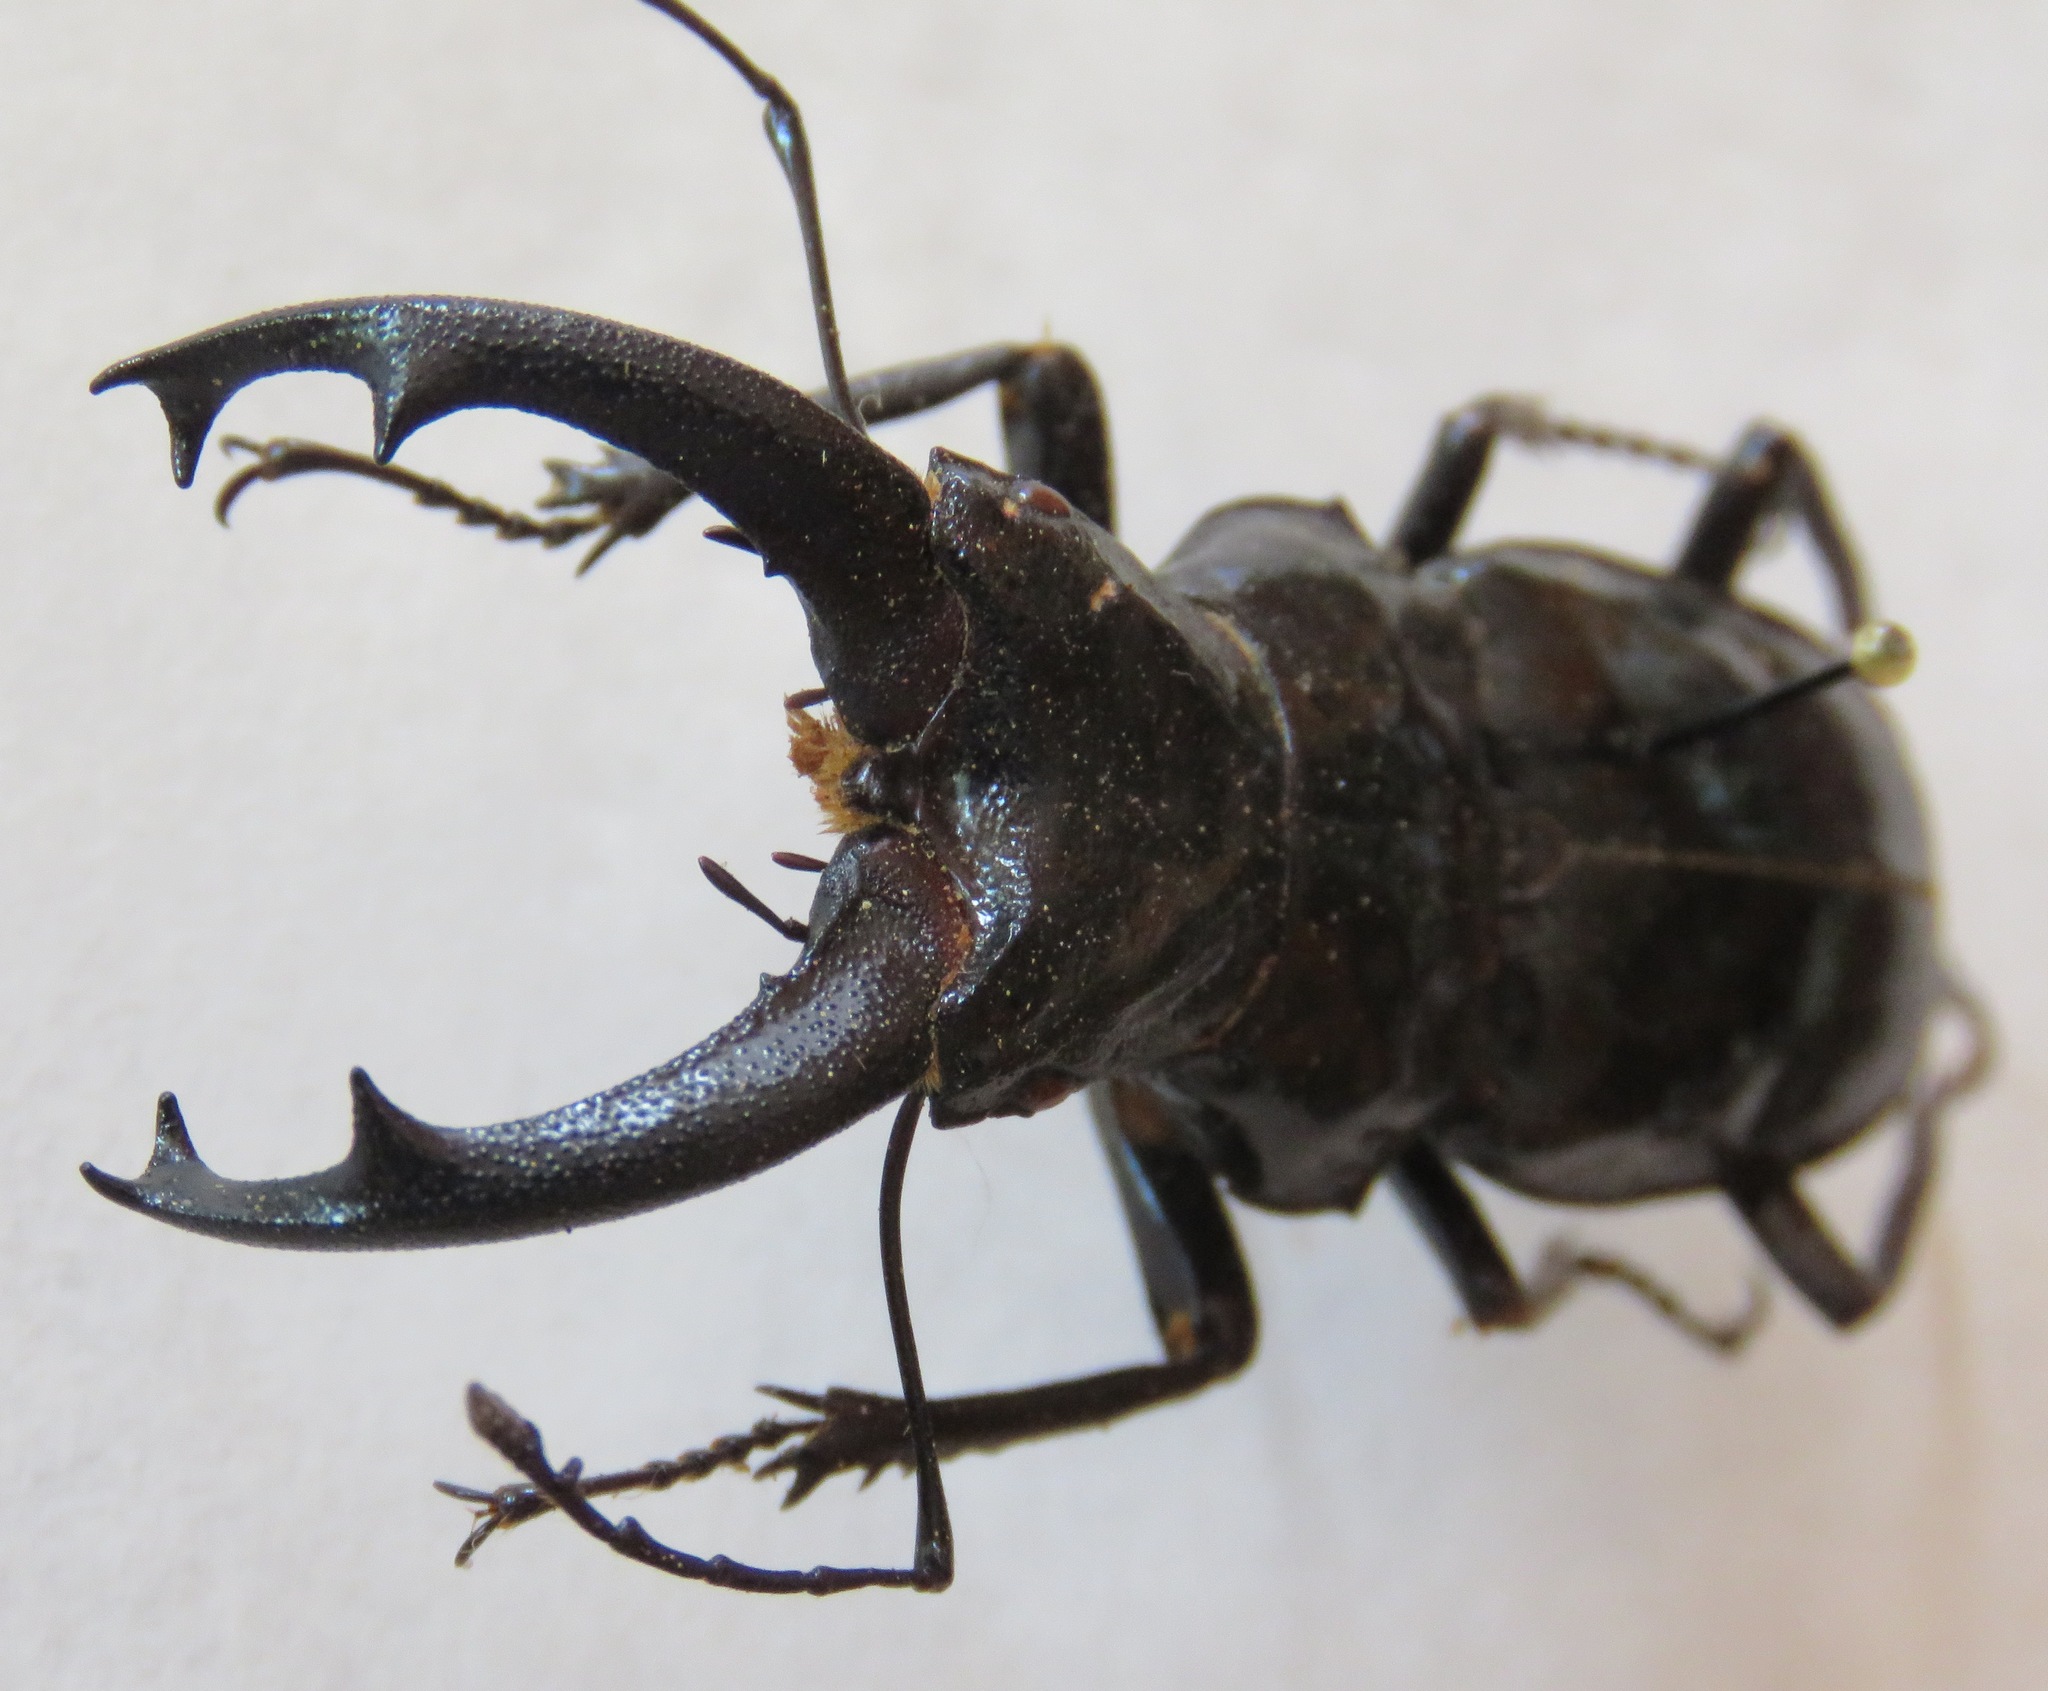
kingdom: Animalia
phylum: Arthropoda
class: Insecta
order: Coleoptera
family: Lucanidae
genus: Cantharolethrus
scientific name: Cantharolethrus peruvianus
